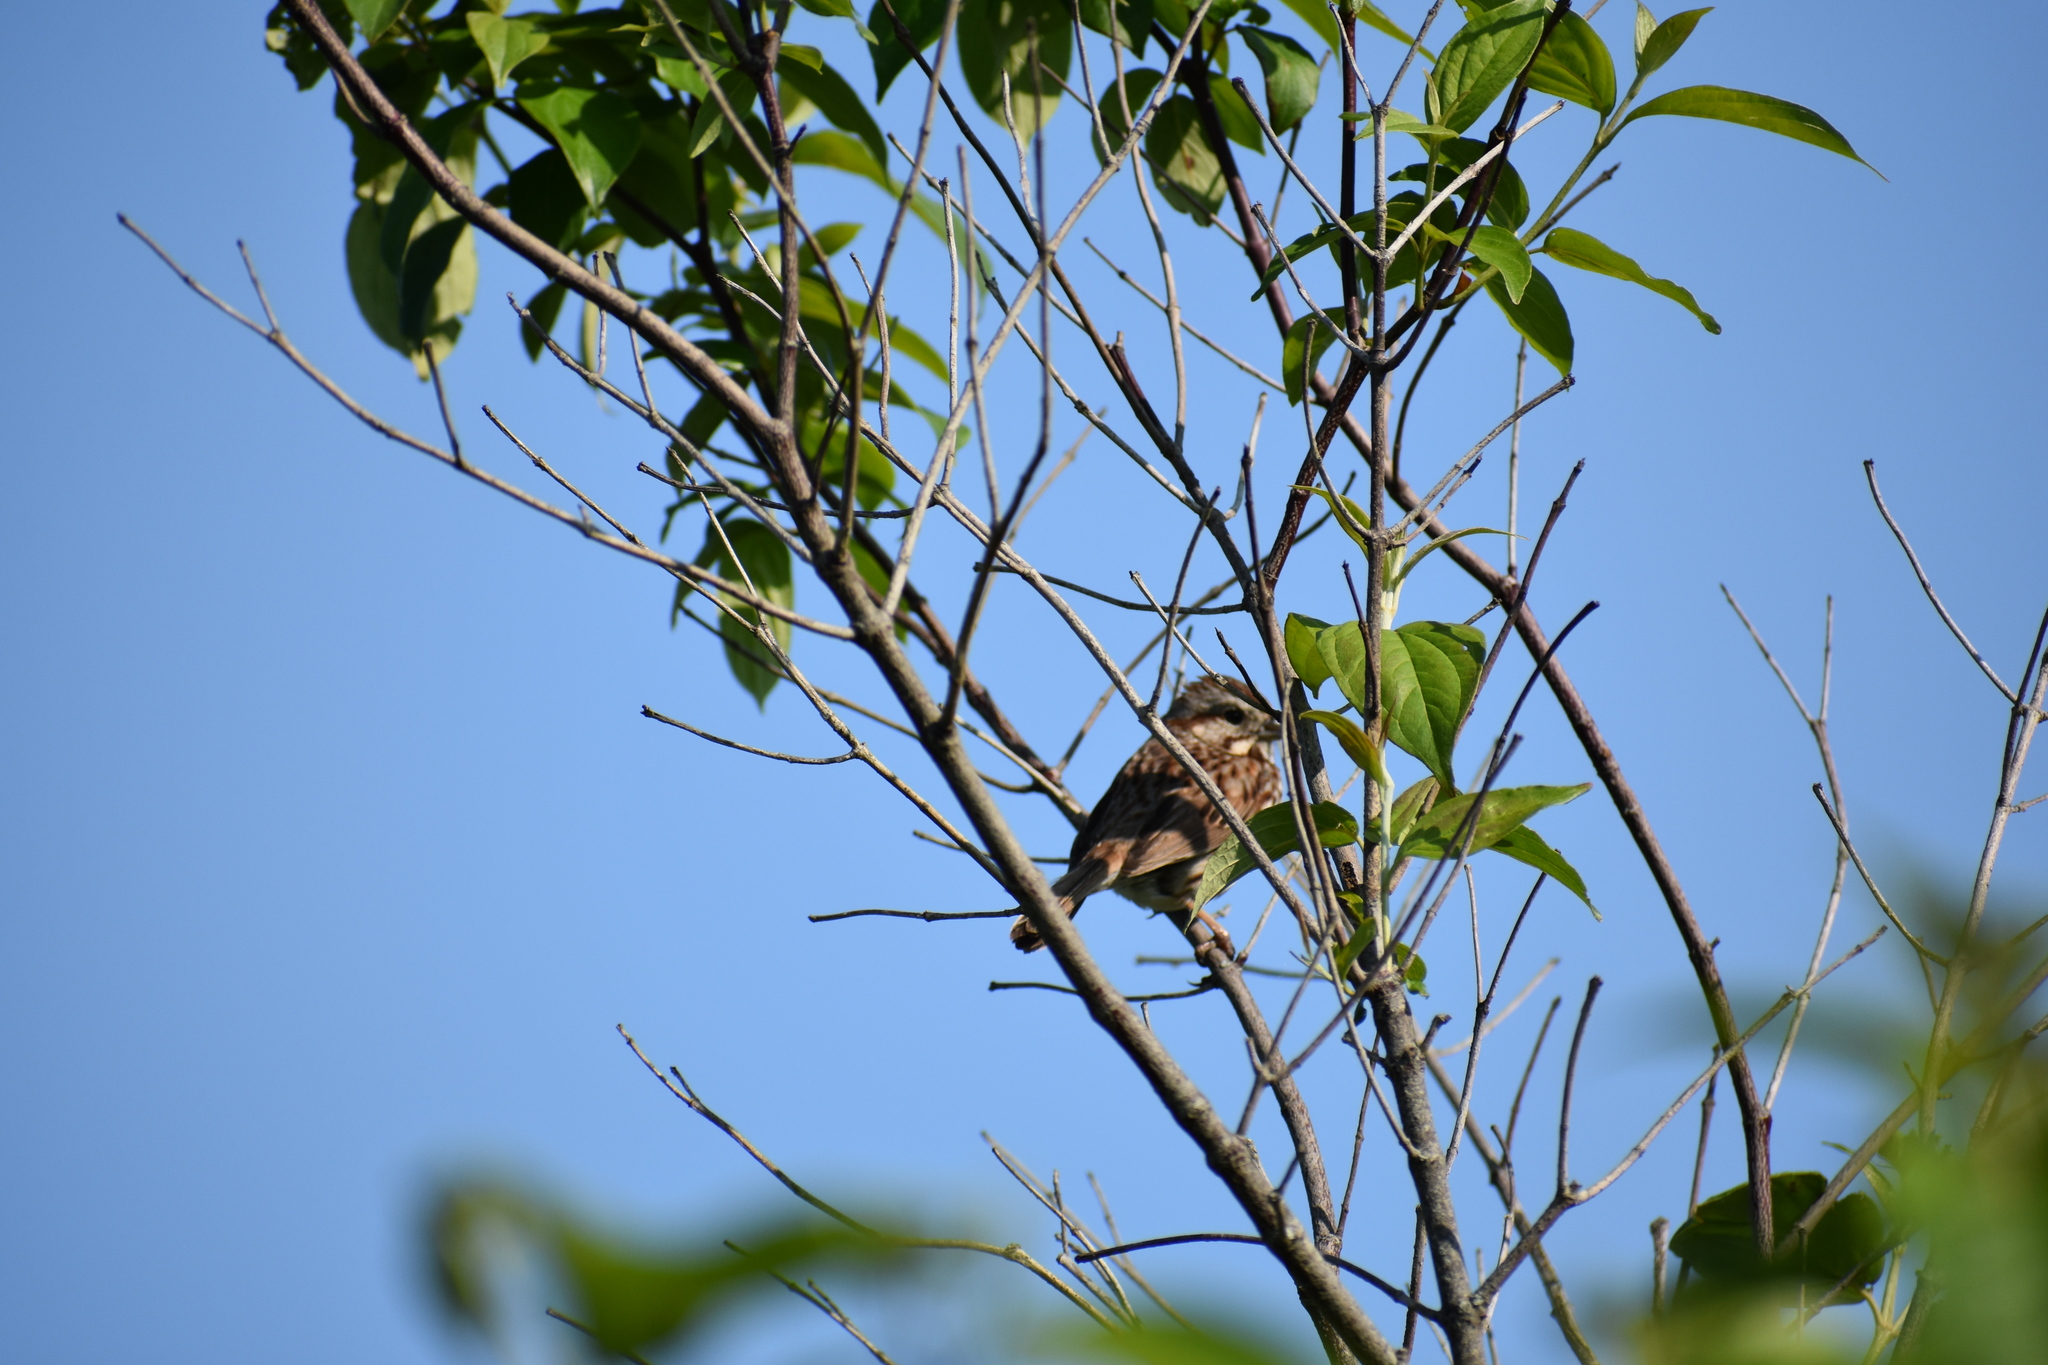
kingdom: Animalia
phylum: Chordata
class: Aves
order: Passeriformes
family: Passerellidae
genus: Melospiza
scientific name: Melospiza melodia
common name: Song sparrow
